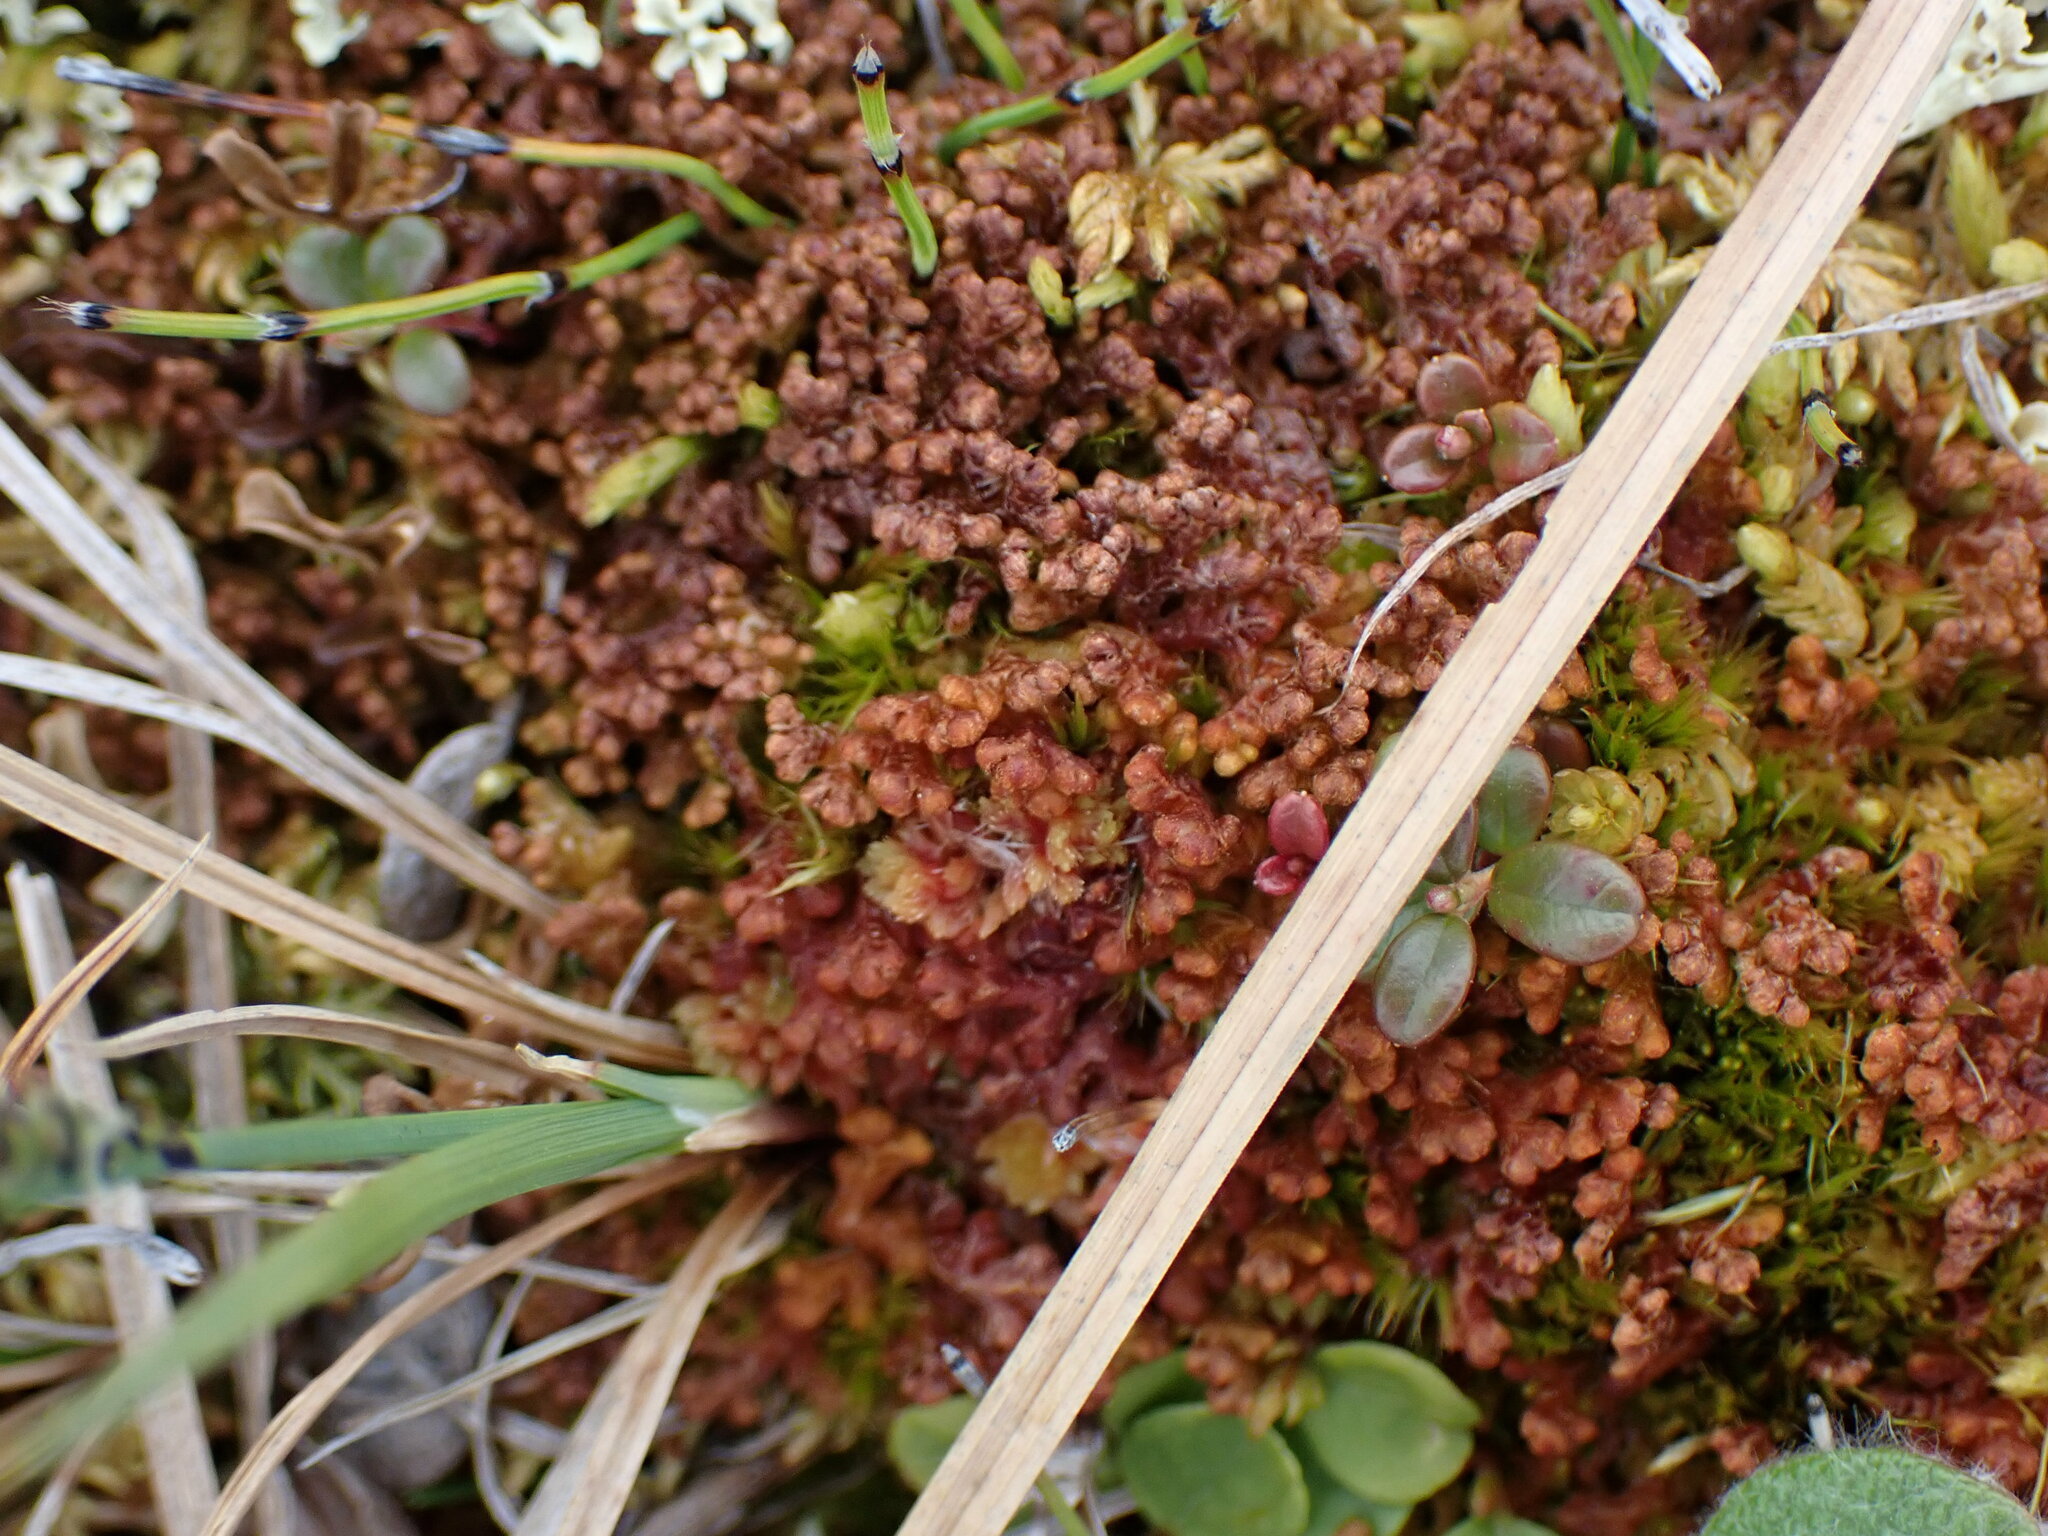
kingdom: Plantae
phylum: Marchantiophyta
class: Jungermanniopsida
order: Ptilidiales
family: Ptilidiaceae
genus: Ptilidium
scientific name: Ptilidium ciliare
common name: Ciliate fringewort
